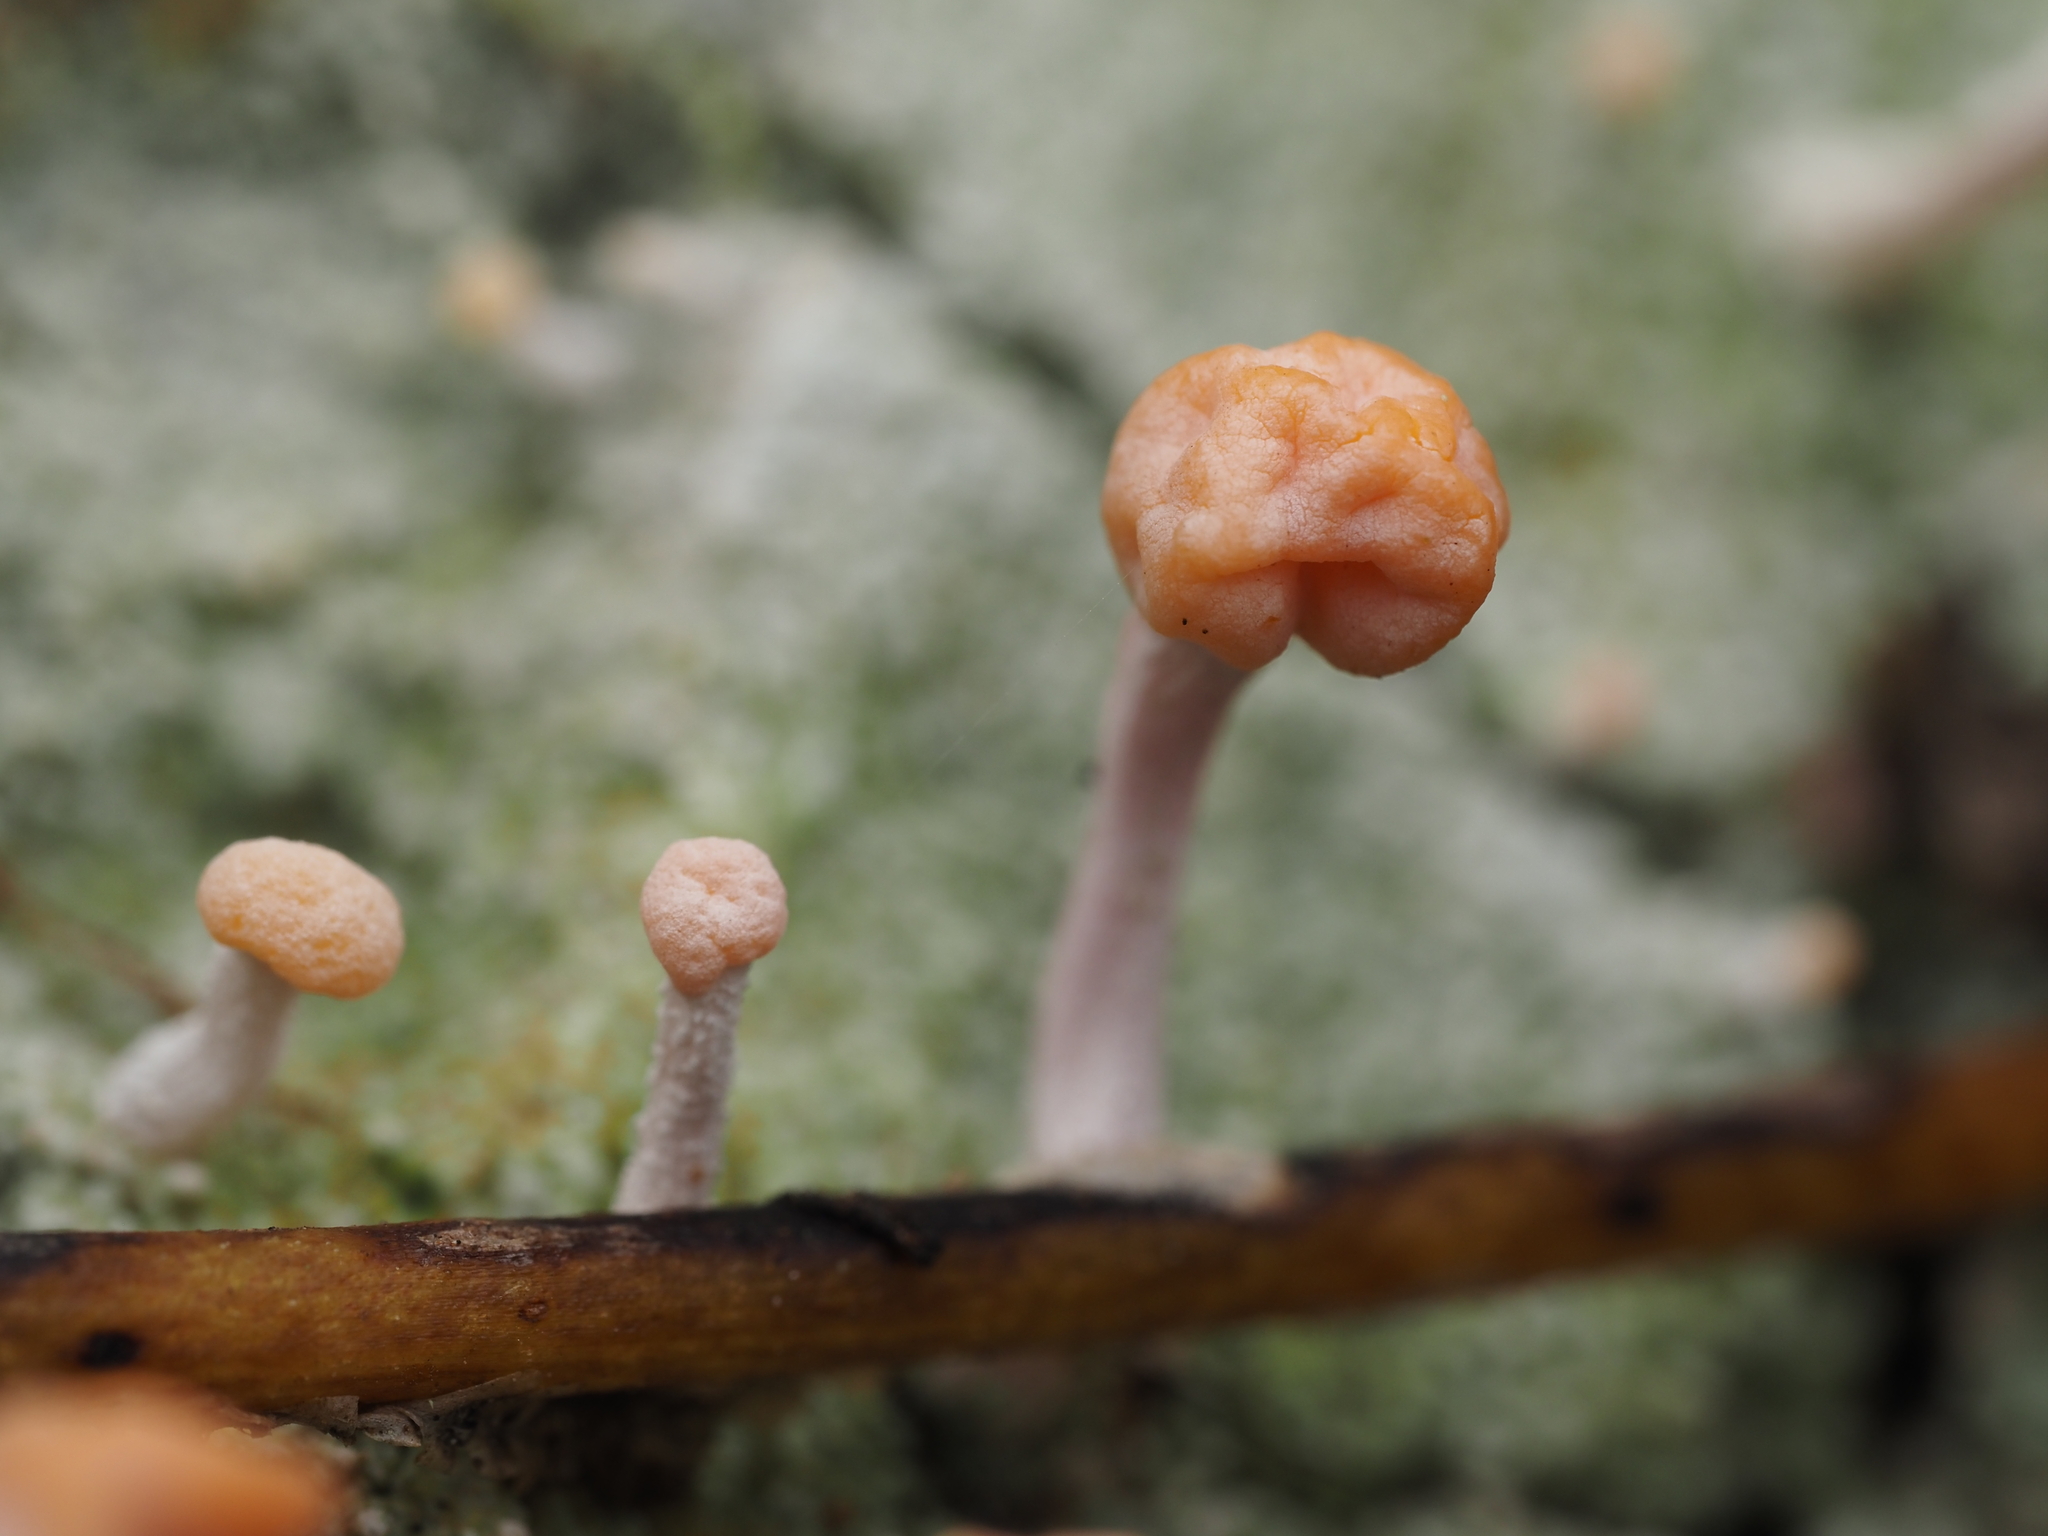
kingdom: Fungi
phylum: Ascomycota
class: Lecanoromycetes
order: Pertusariales
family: Icmadophilaceae
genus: Dibaeis
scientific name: Dibaeis arcuata
